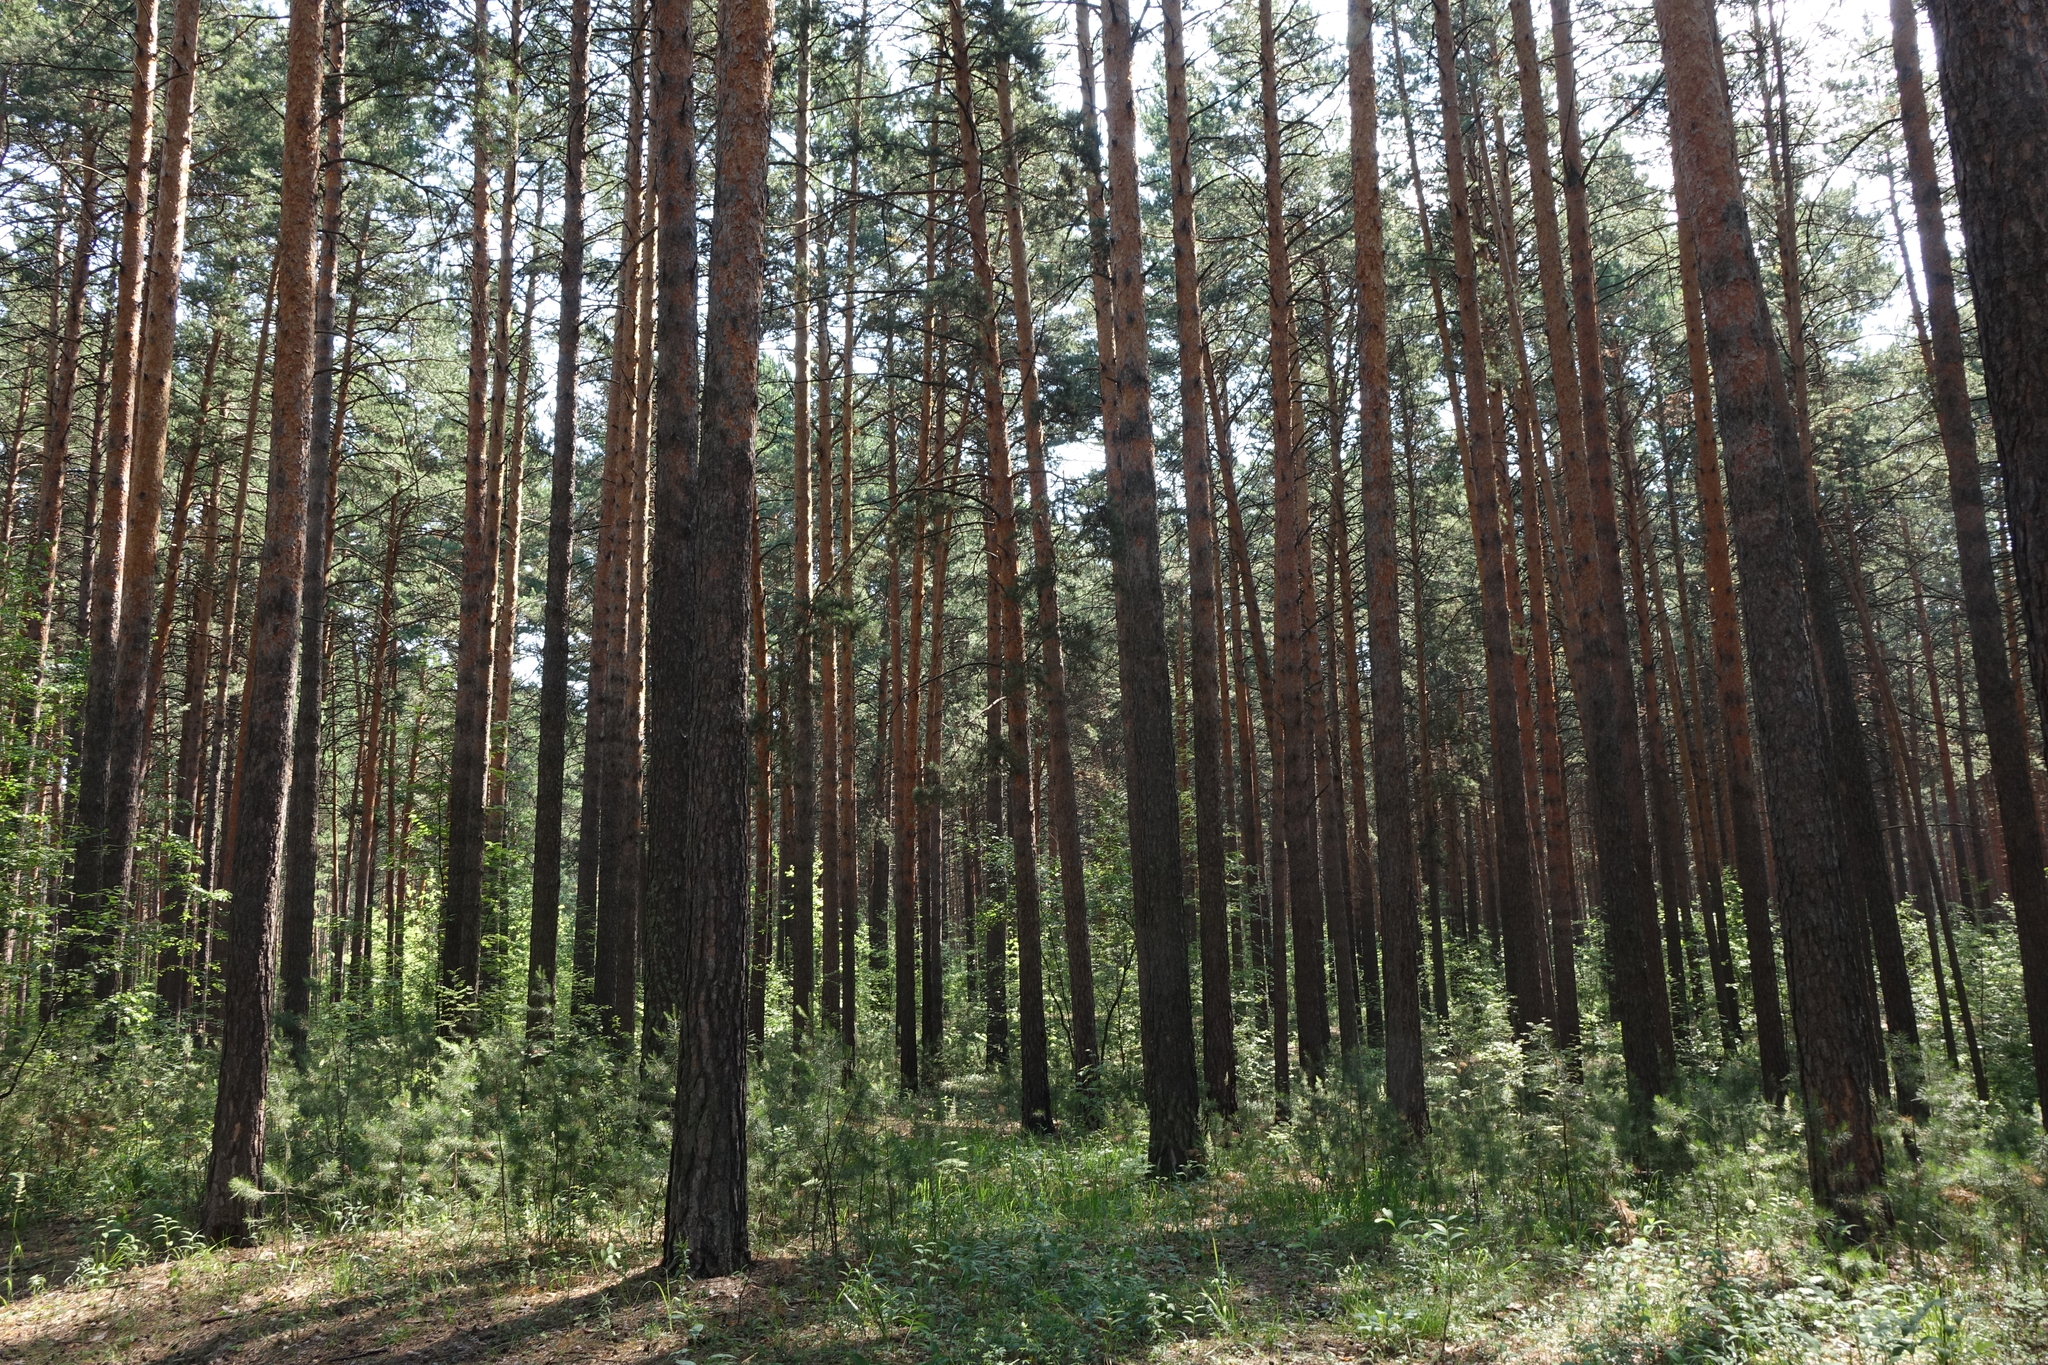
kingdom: Plantae
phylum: Tracheophyta
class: Pinopsida
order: Pinales
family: Pinaceae
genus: Pinus
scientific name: Pinus sylvestris
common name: Scots pine
